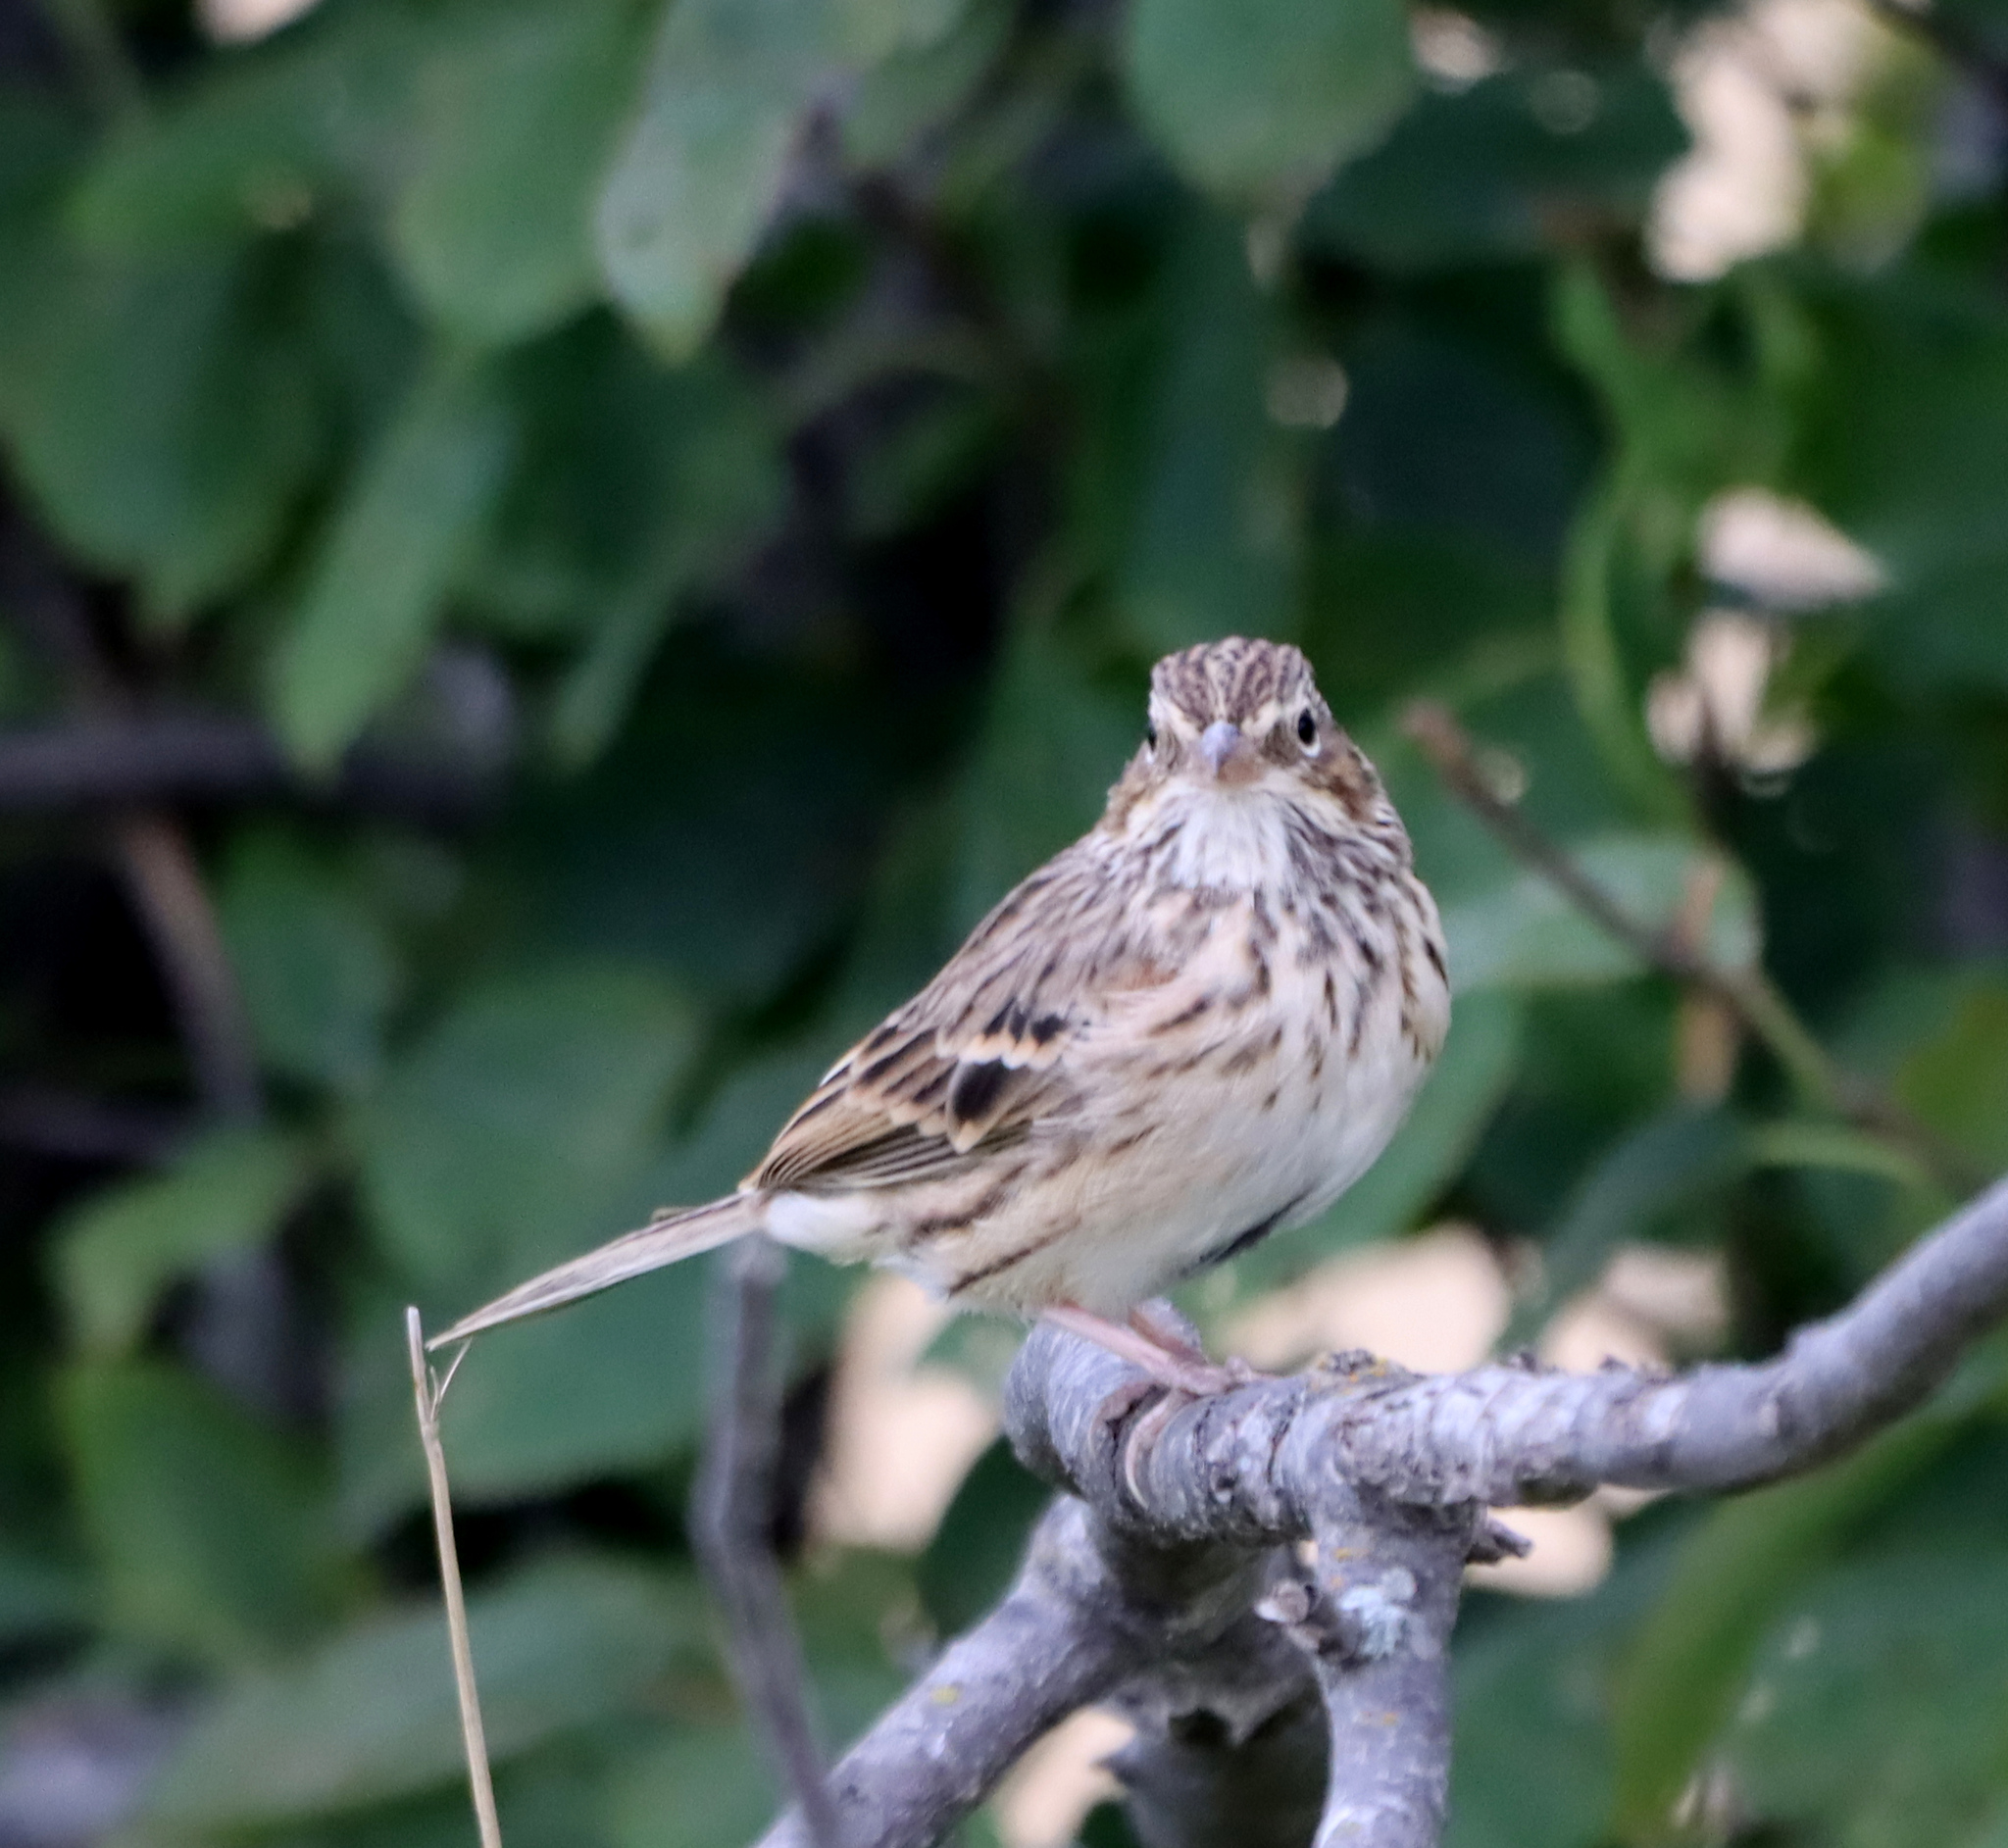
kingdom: Animalia
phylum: Chordata
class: Aves
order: Passeriformes
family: Passerellidae
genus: Pooecetes
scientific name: Pooecetes gramineus
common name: Vesper sparrow
